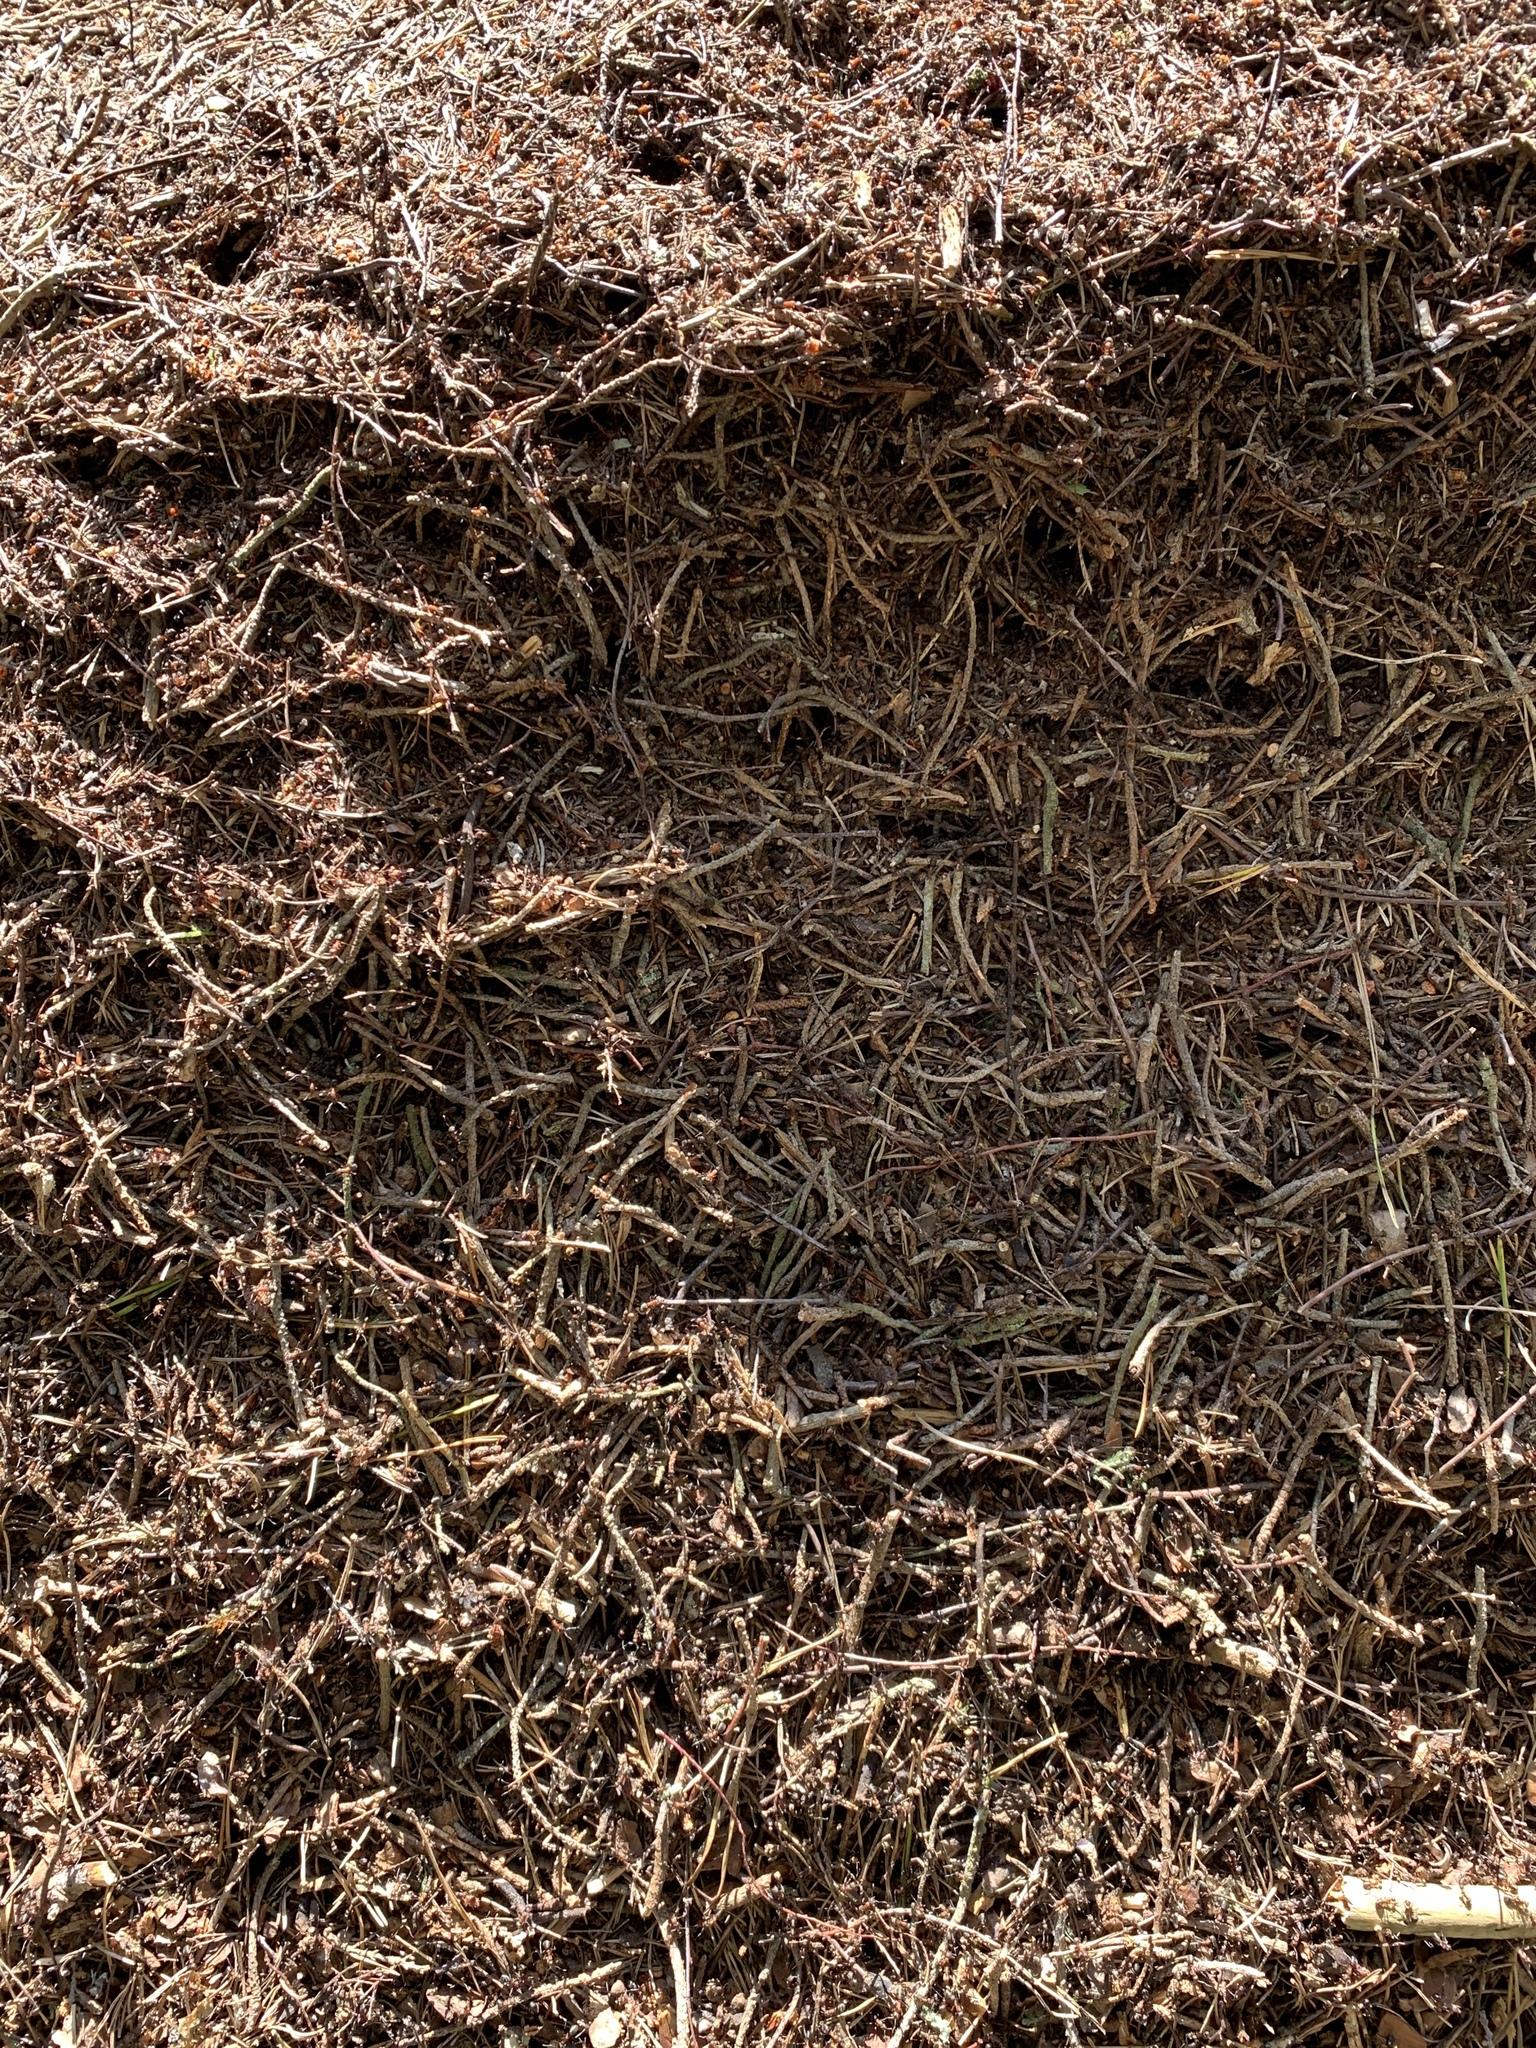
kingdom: Animalia
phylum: Arthropoda
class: Insecta
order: Hymenoptera
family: Formicidae
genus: Formica
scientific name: Formica
